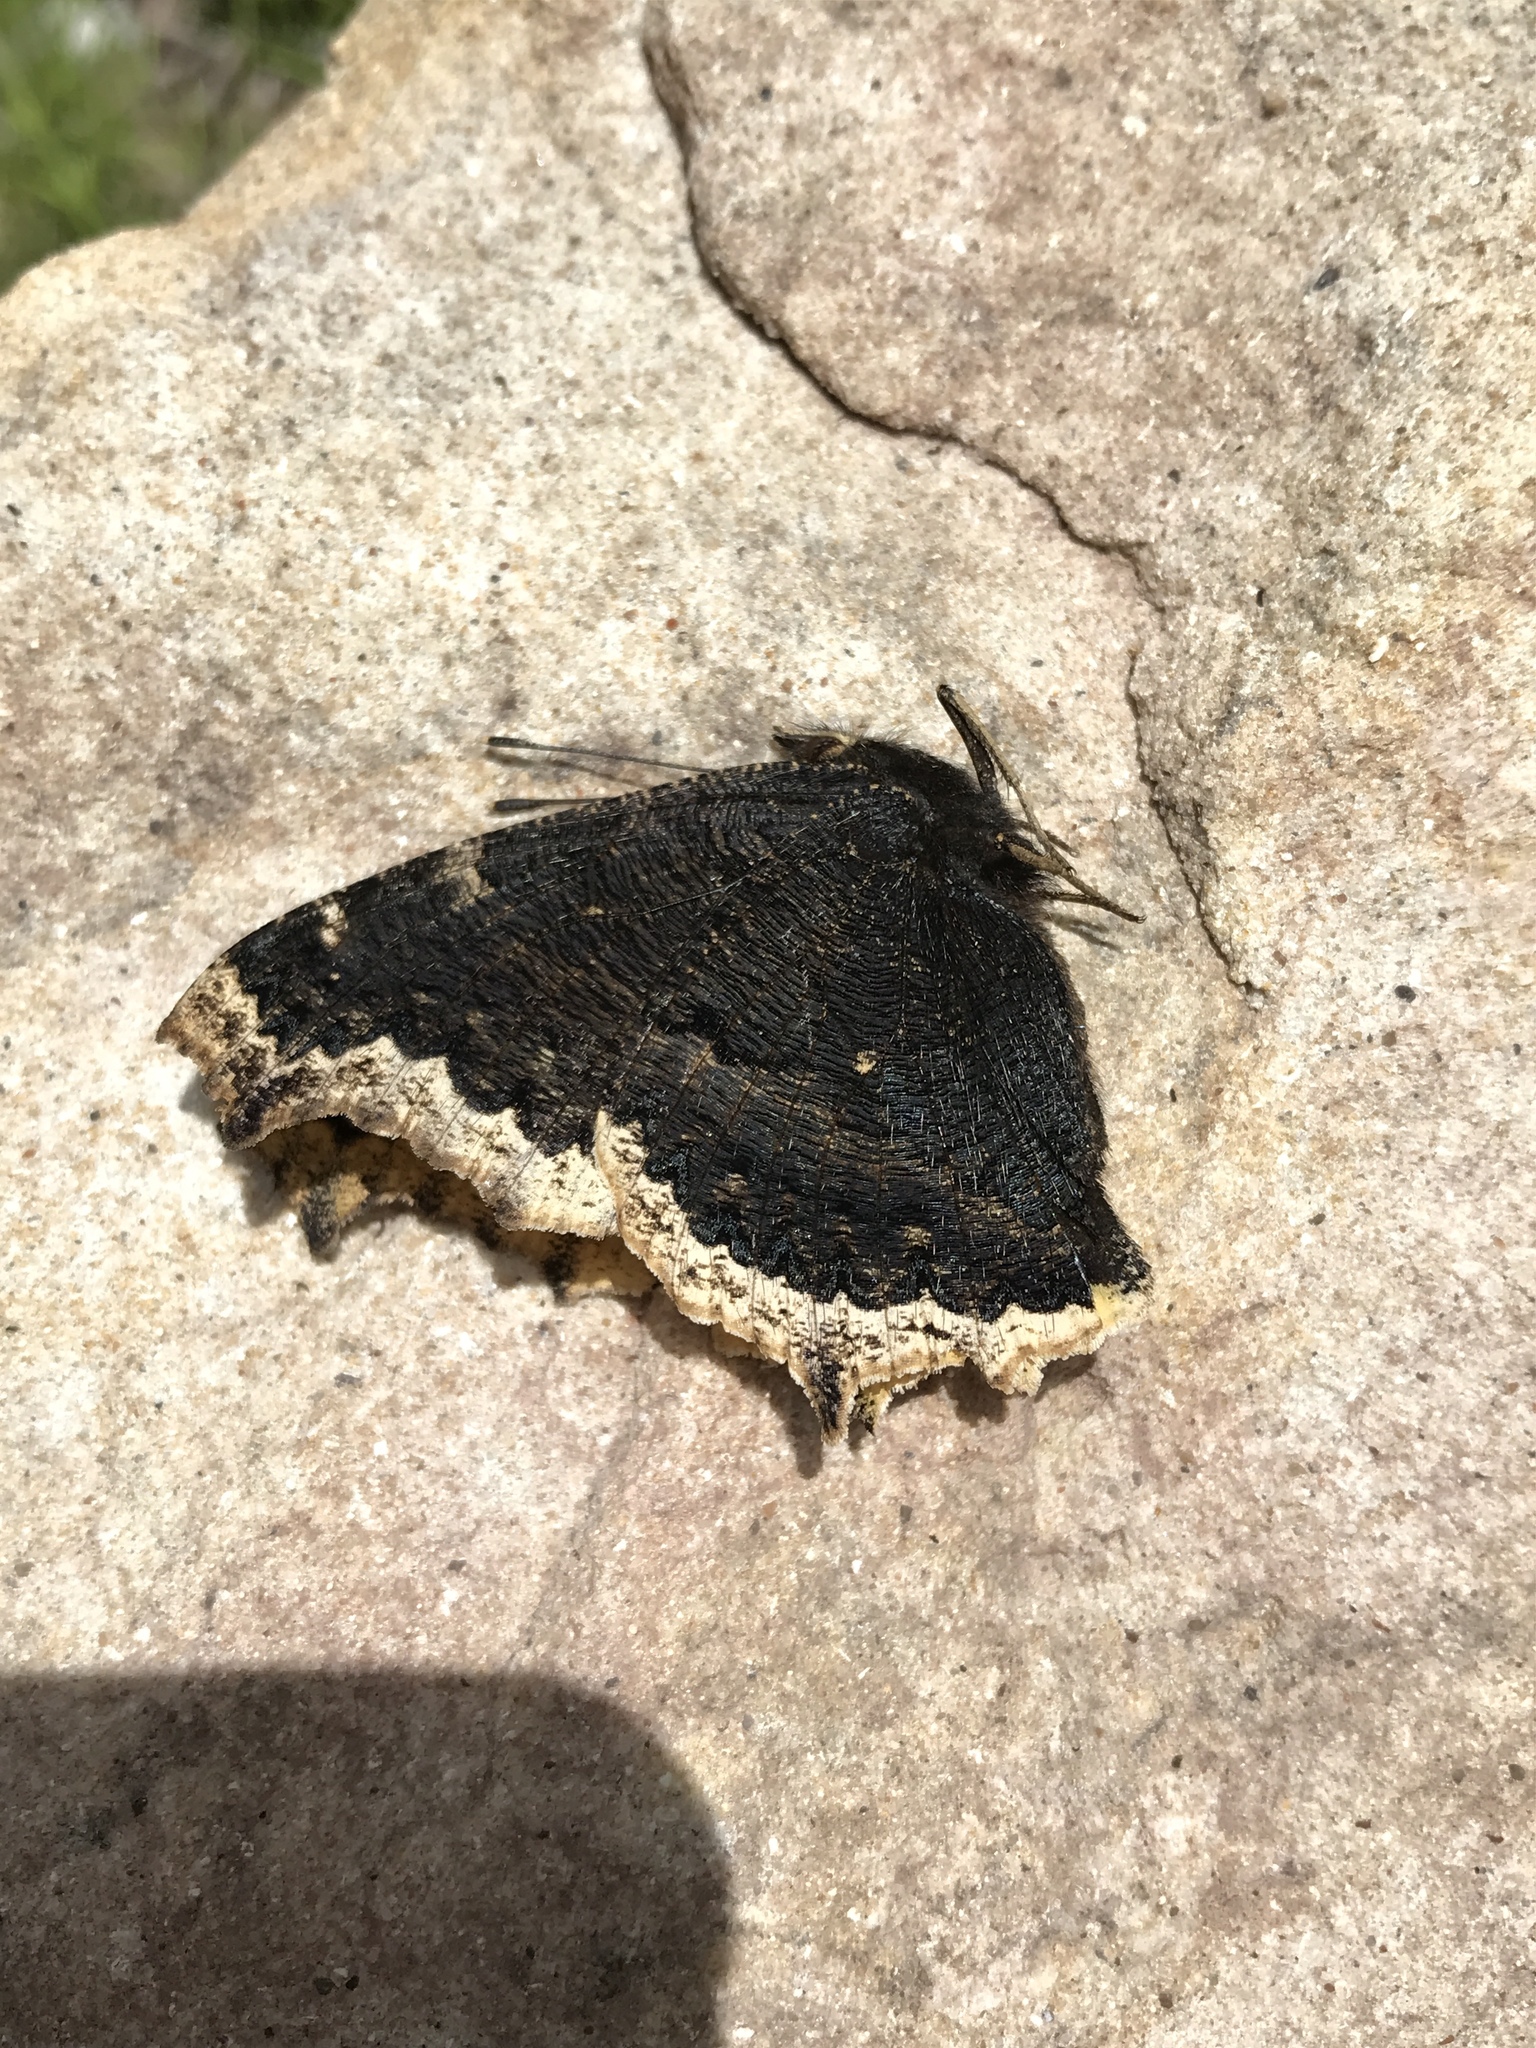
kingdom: Animalia
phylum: Arthropoda
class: Insecta
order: Lepidoptera
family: Nymphalidae
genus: Nymphalis
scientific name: Nymphalis antiopa
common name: Camberwell beauty
